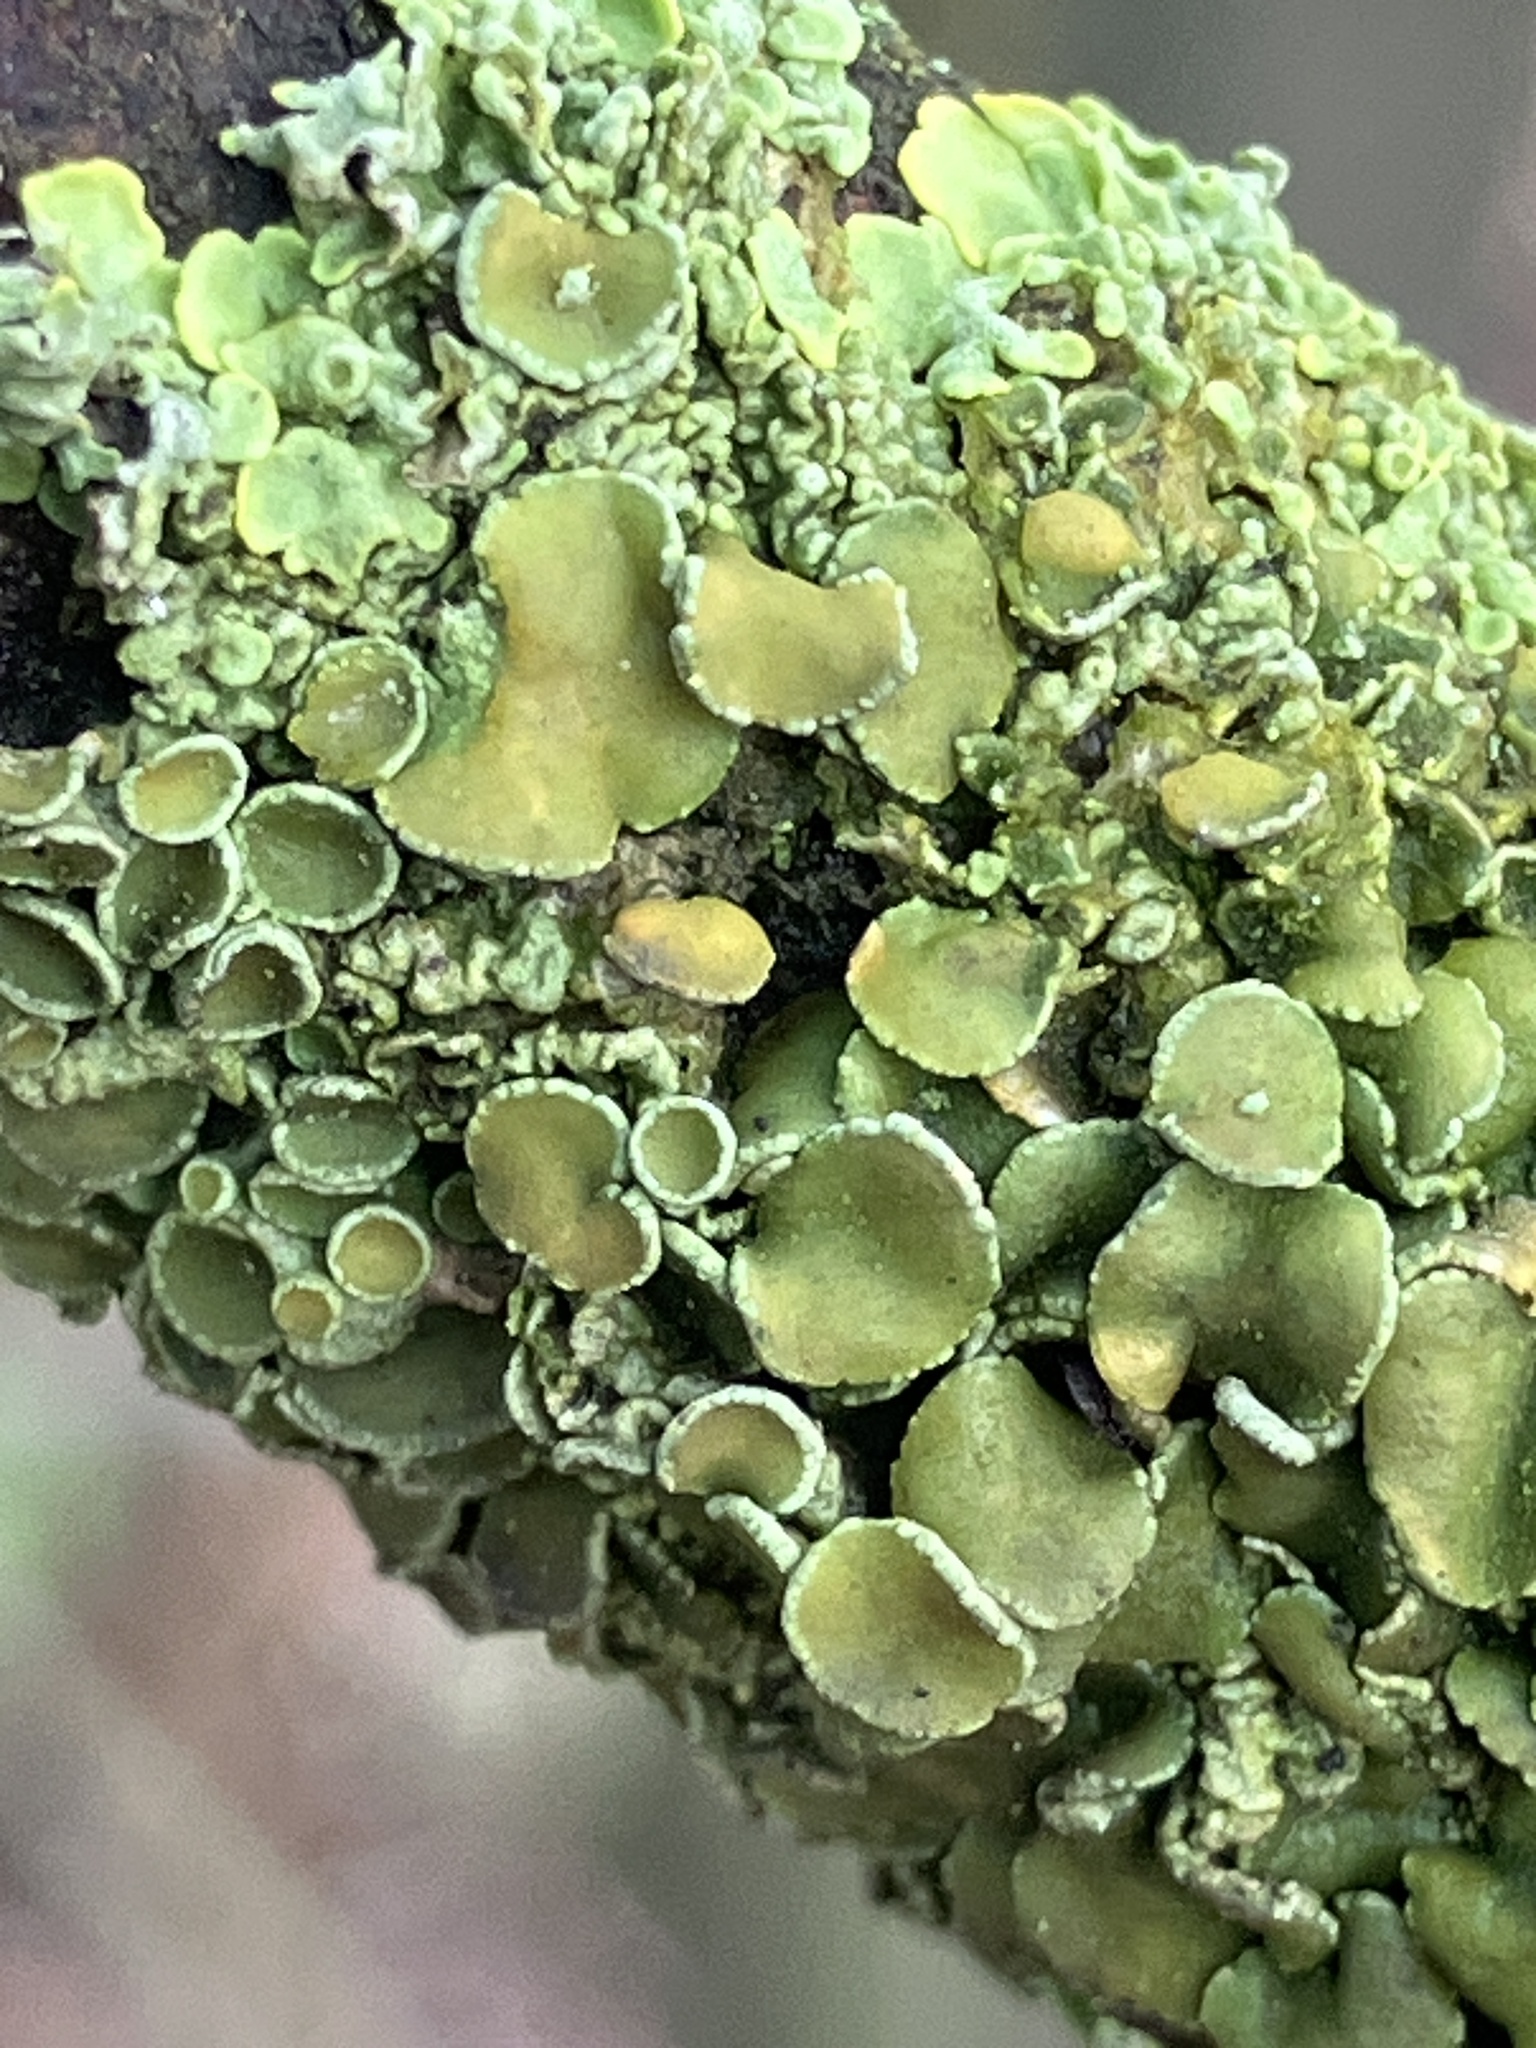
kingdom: Fungi
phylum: Ascomycota
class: Lecanoromycetes
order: Teloschistales
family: Teloschistaceae
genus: Xanthoria
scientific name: Xanthoria parietina
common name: Common orange lichen
